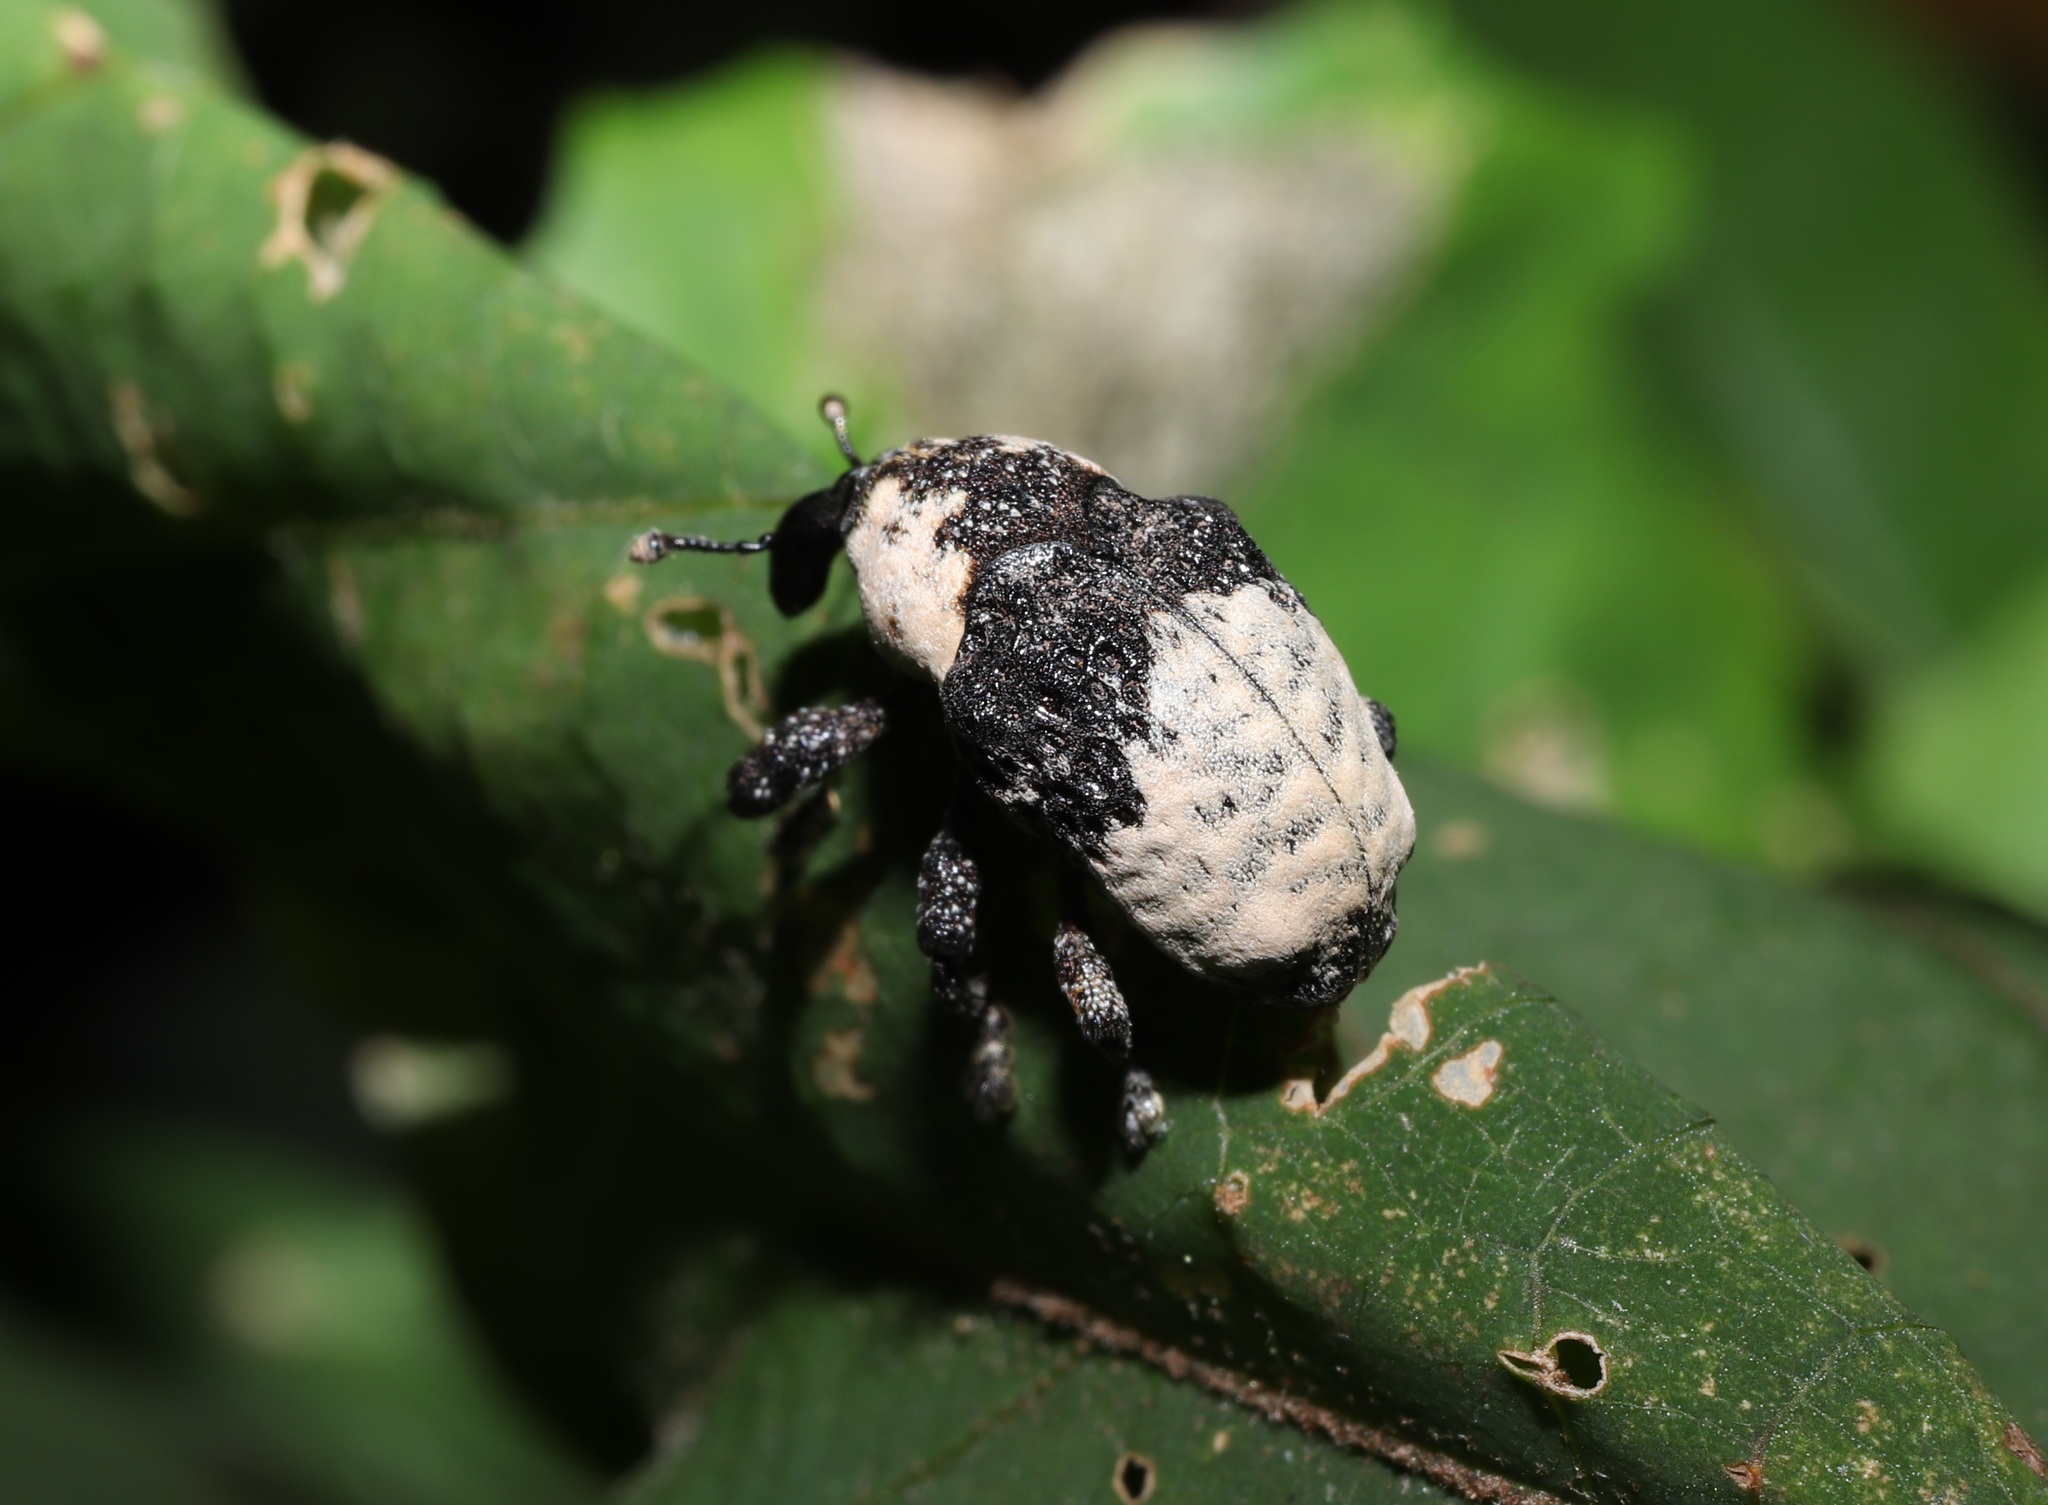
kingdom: Animalia
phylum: Arthropoda
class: Insecta
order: Coleoptera
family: Curculionidae
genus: Alcides
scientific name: Alcides trifidus
